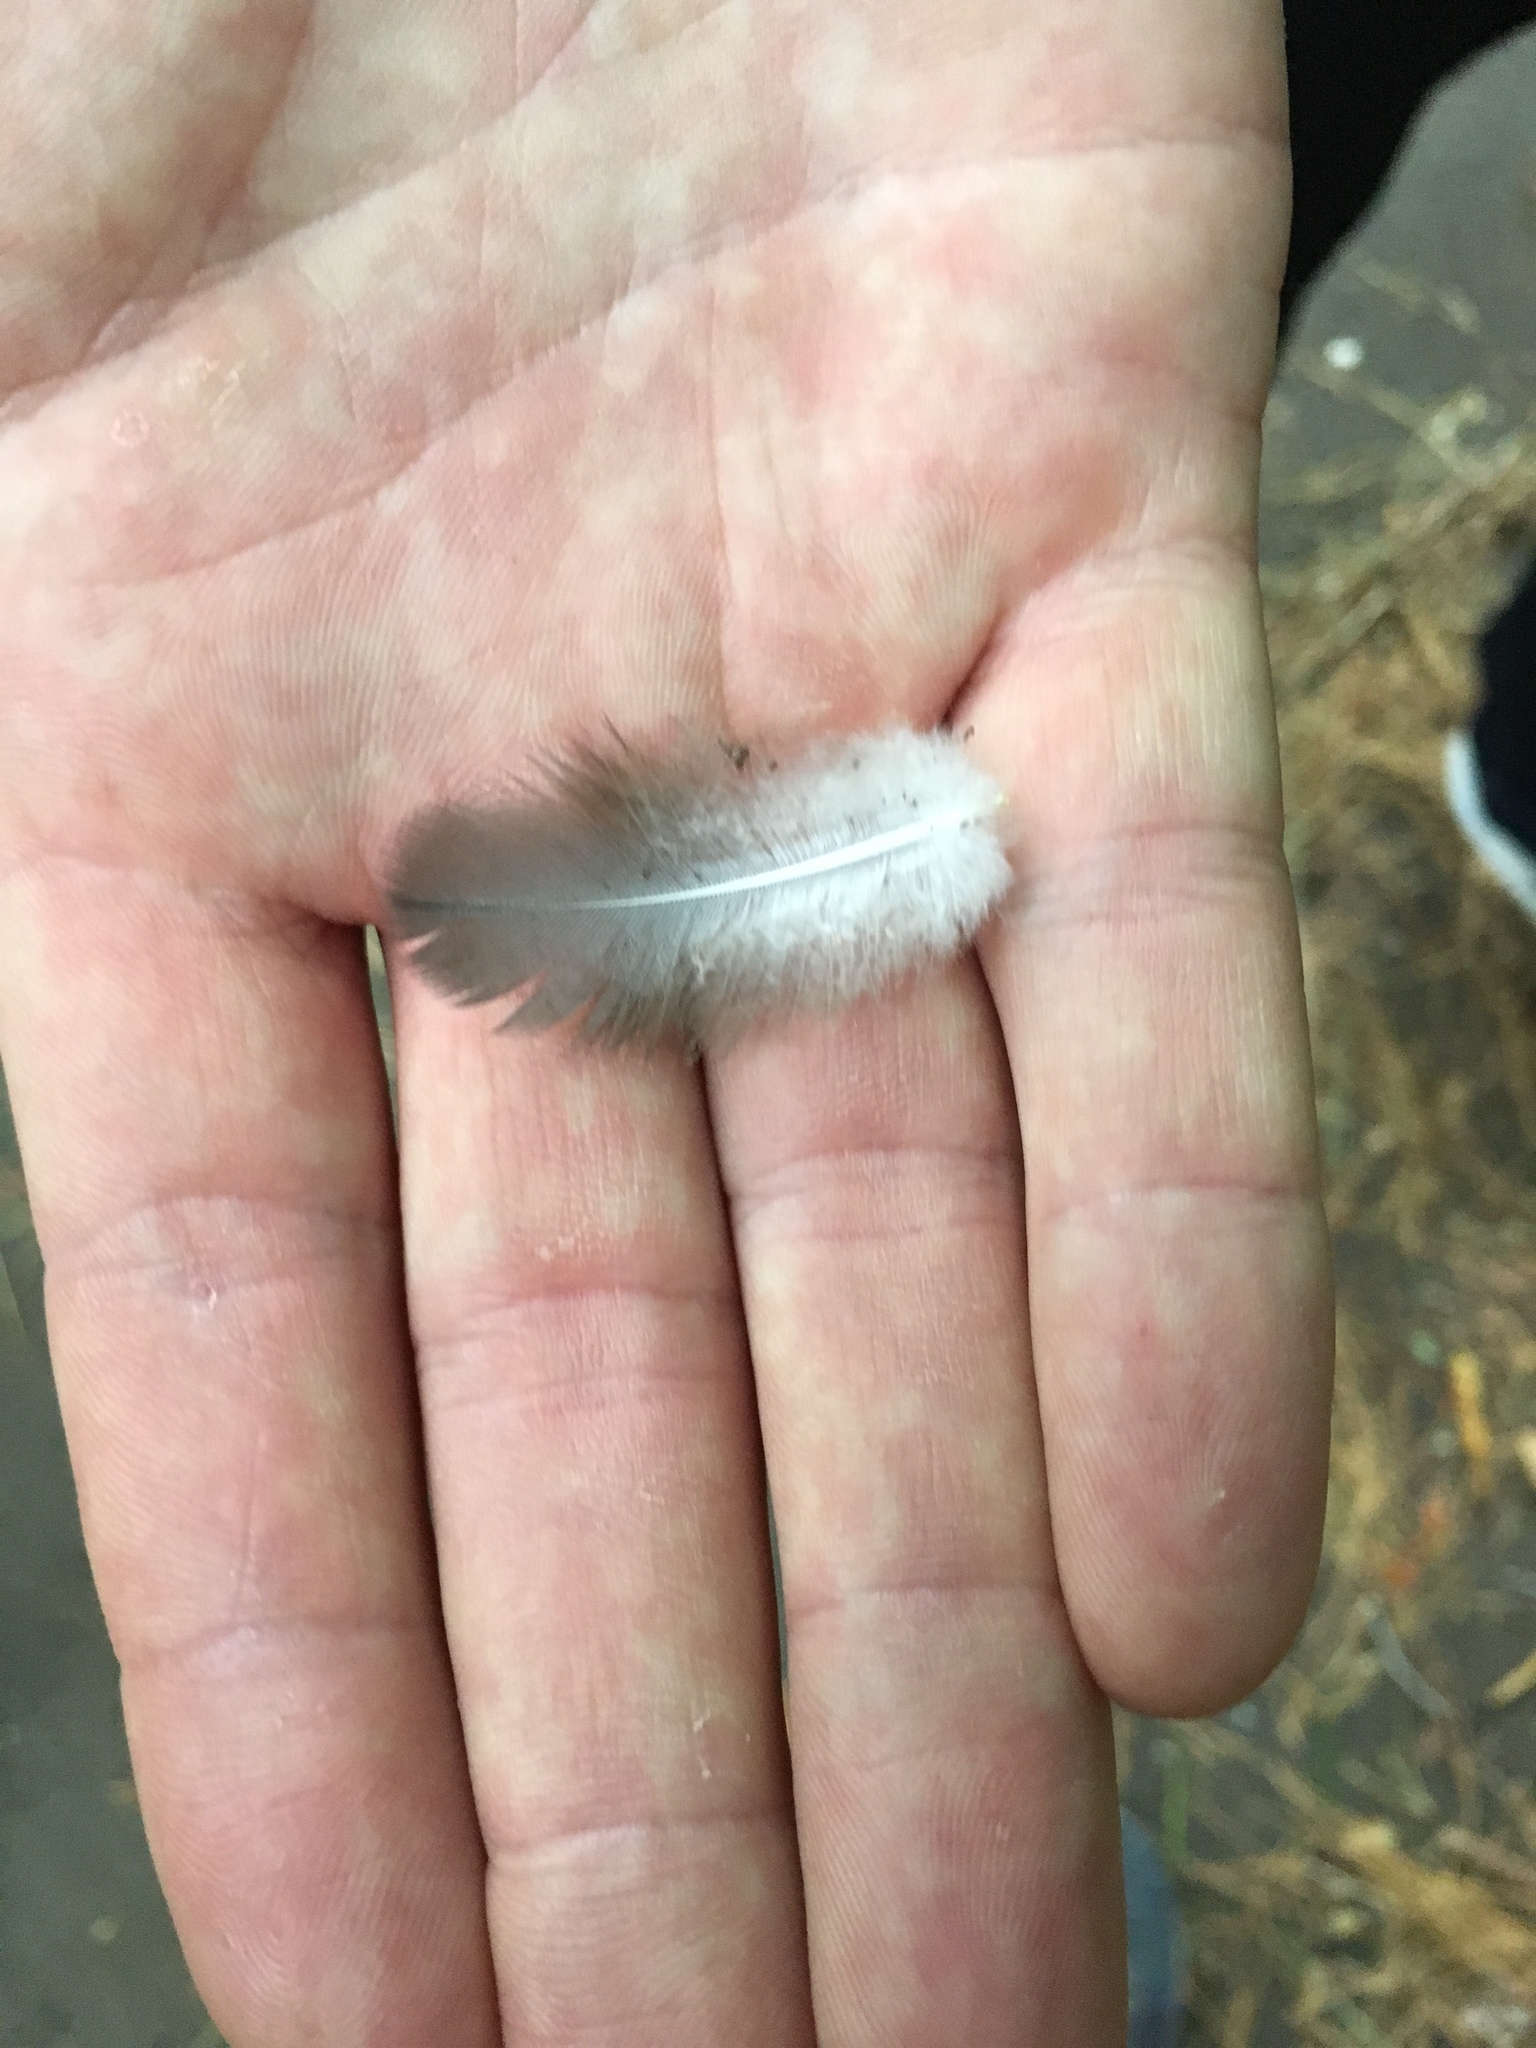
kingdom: Animalia
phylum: Chordata
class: Aves
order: Columbiformes
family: Columbidae
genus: Hemiphaga
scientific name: Hemiphaga novaeseelandiae
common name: New zealand pigeon
